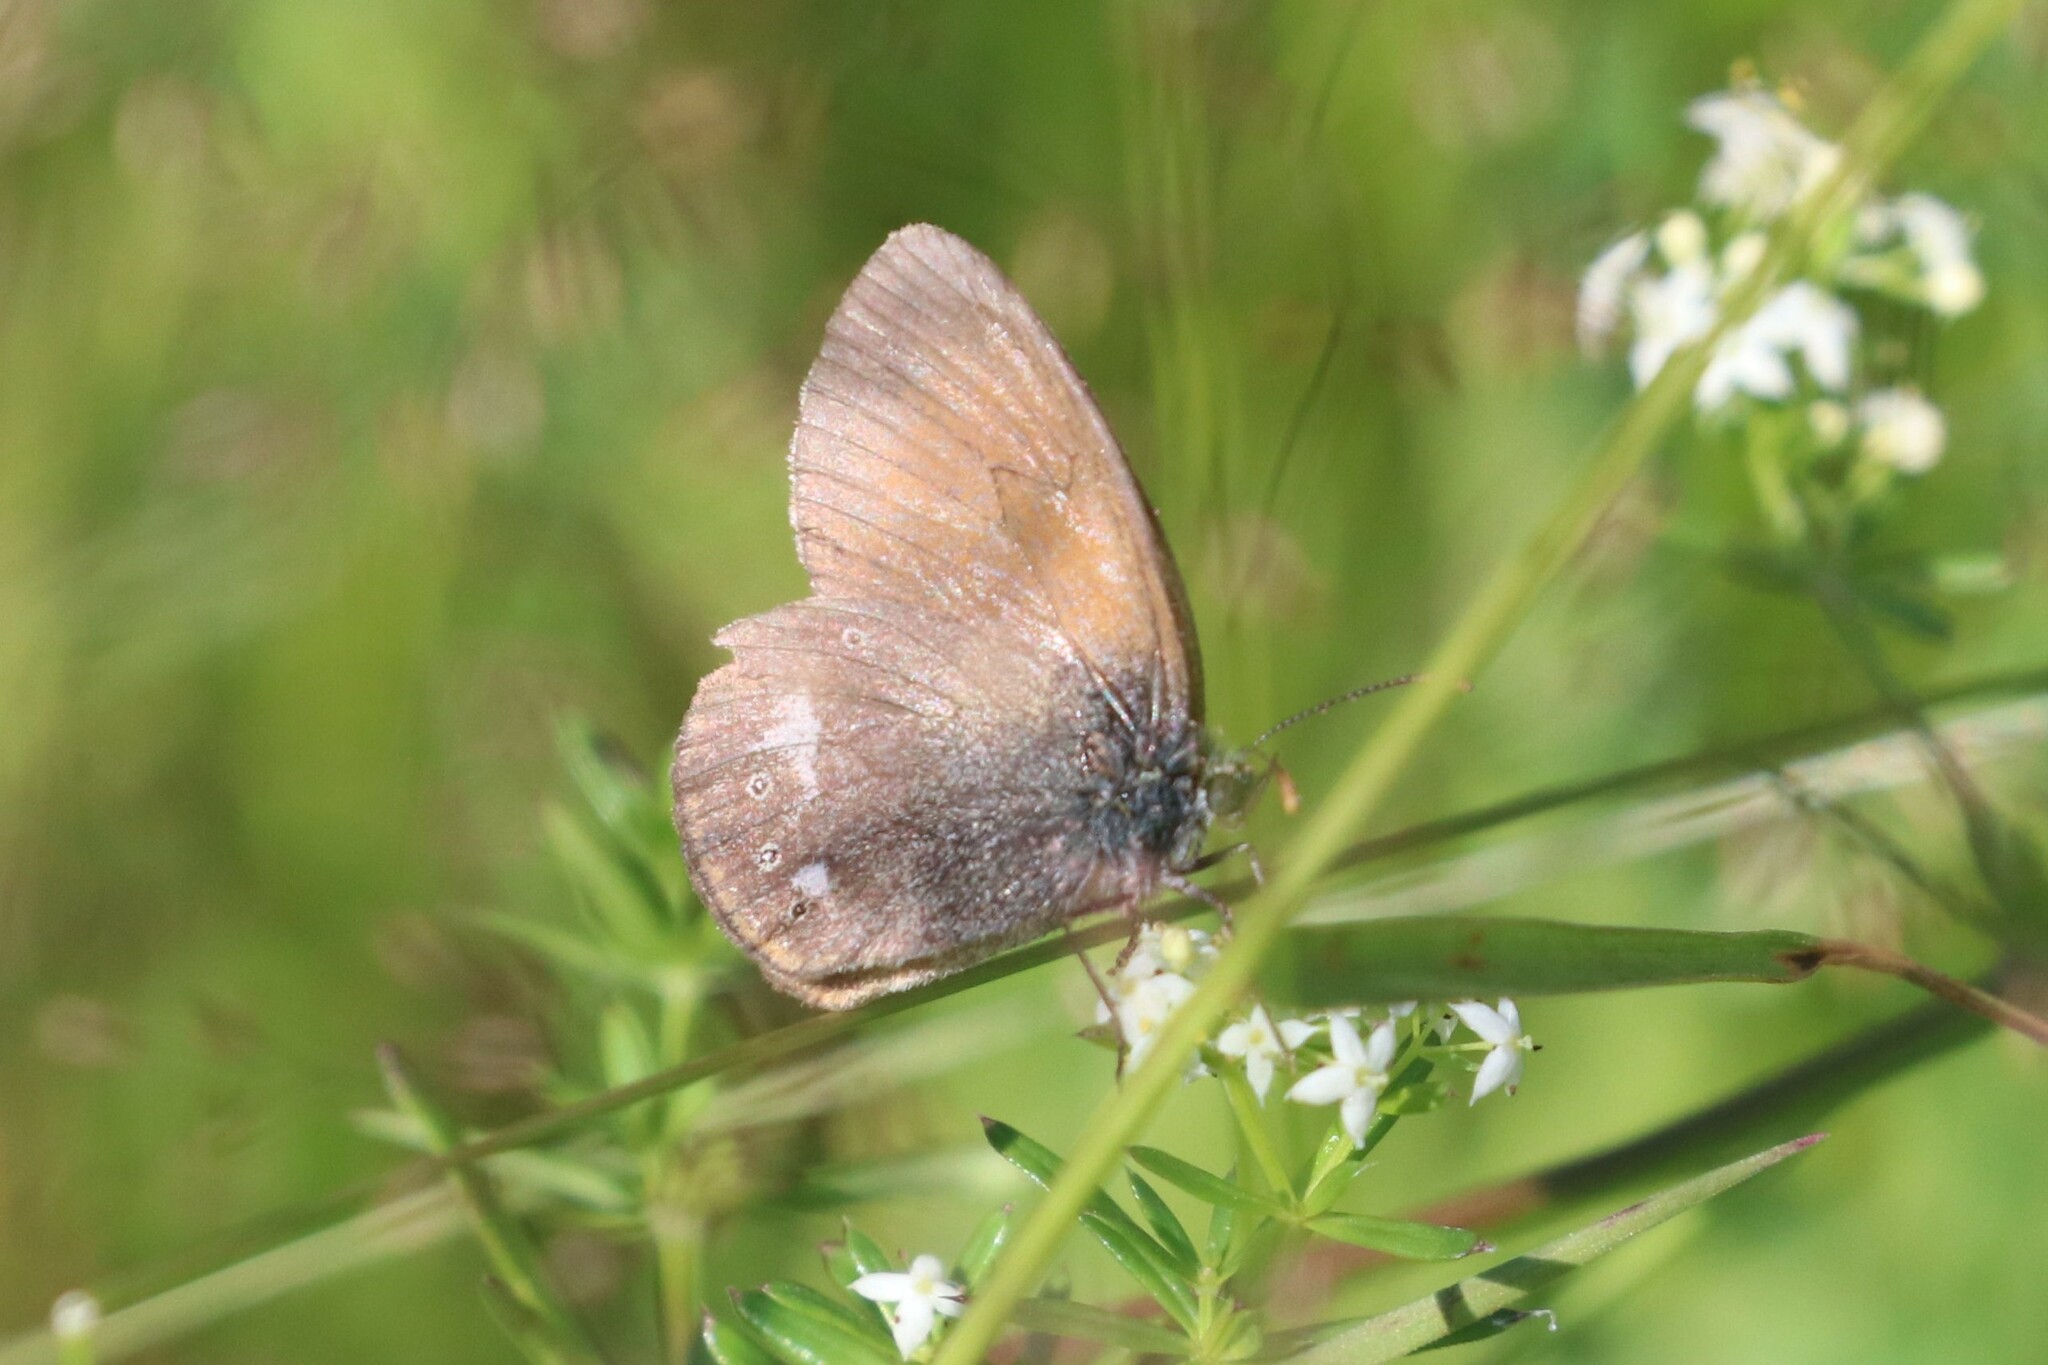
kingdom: Animalia
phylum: Arthropoda
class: Insecta
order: Lepidoptera
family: Nymphalidae
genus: Coenonympha
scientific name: Coenonympha iphis
